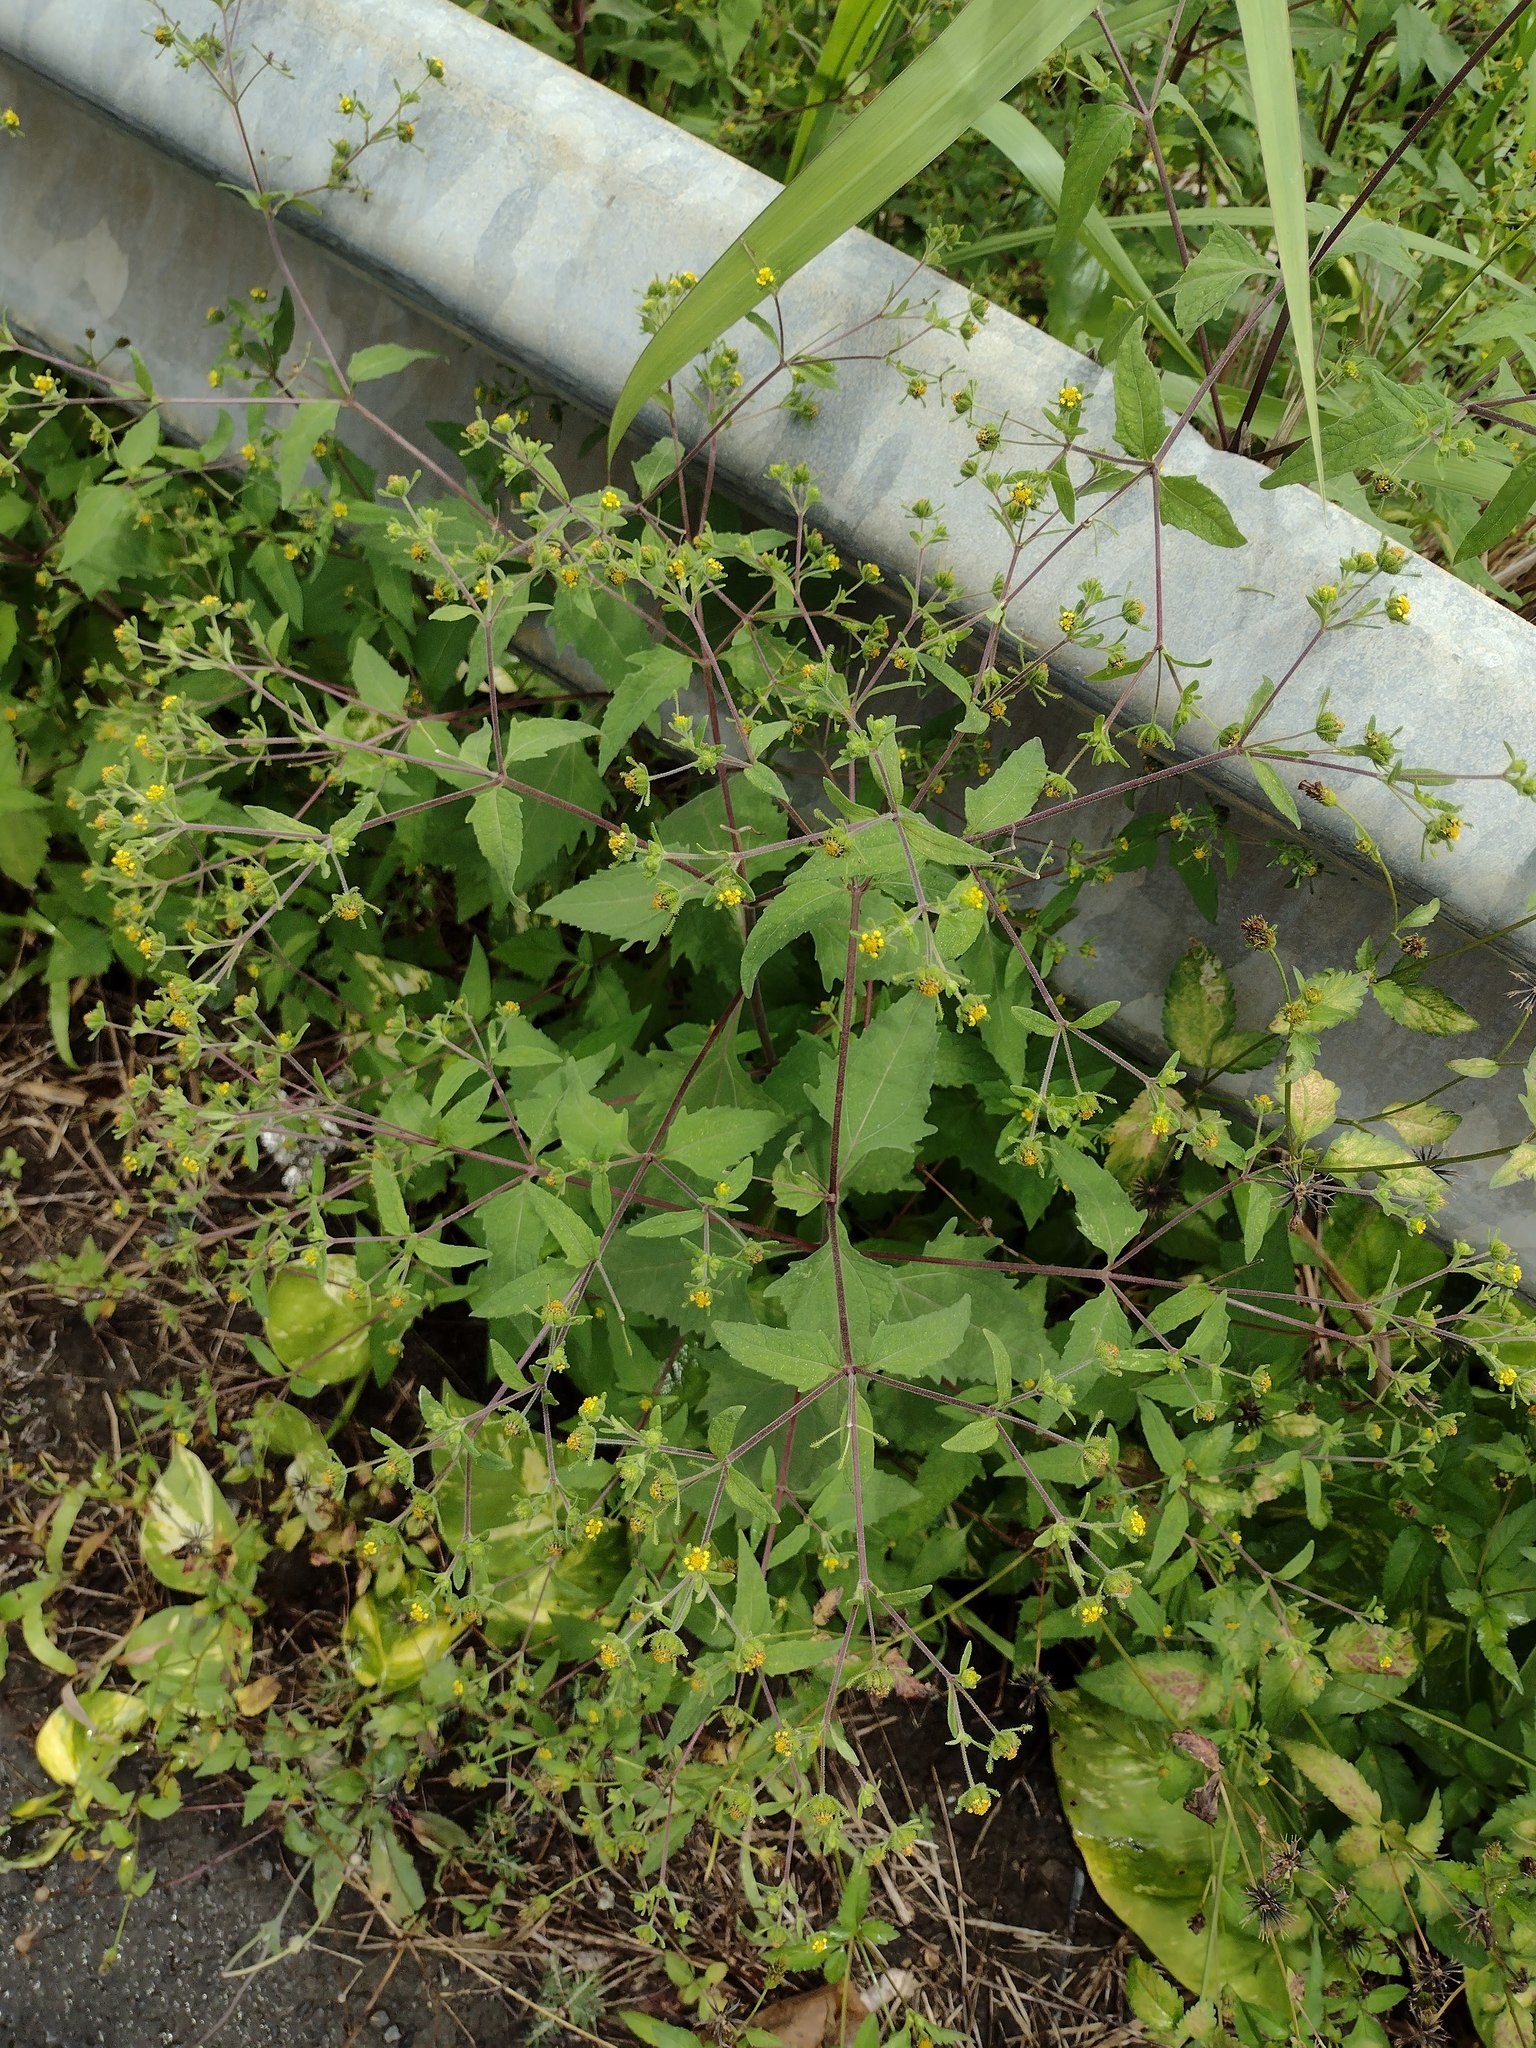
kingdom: Plantae
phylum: Tracheophyta
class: Magnoliopsida
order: Asterales
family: Asteraceae
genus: Sigesbeckia
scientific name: Sigesbeckia orientalis
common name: Eastern st paul's-wort
